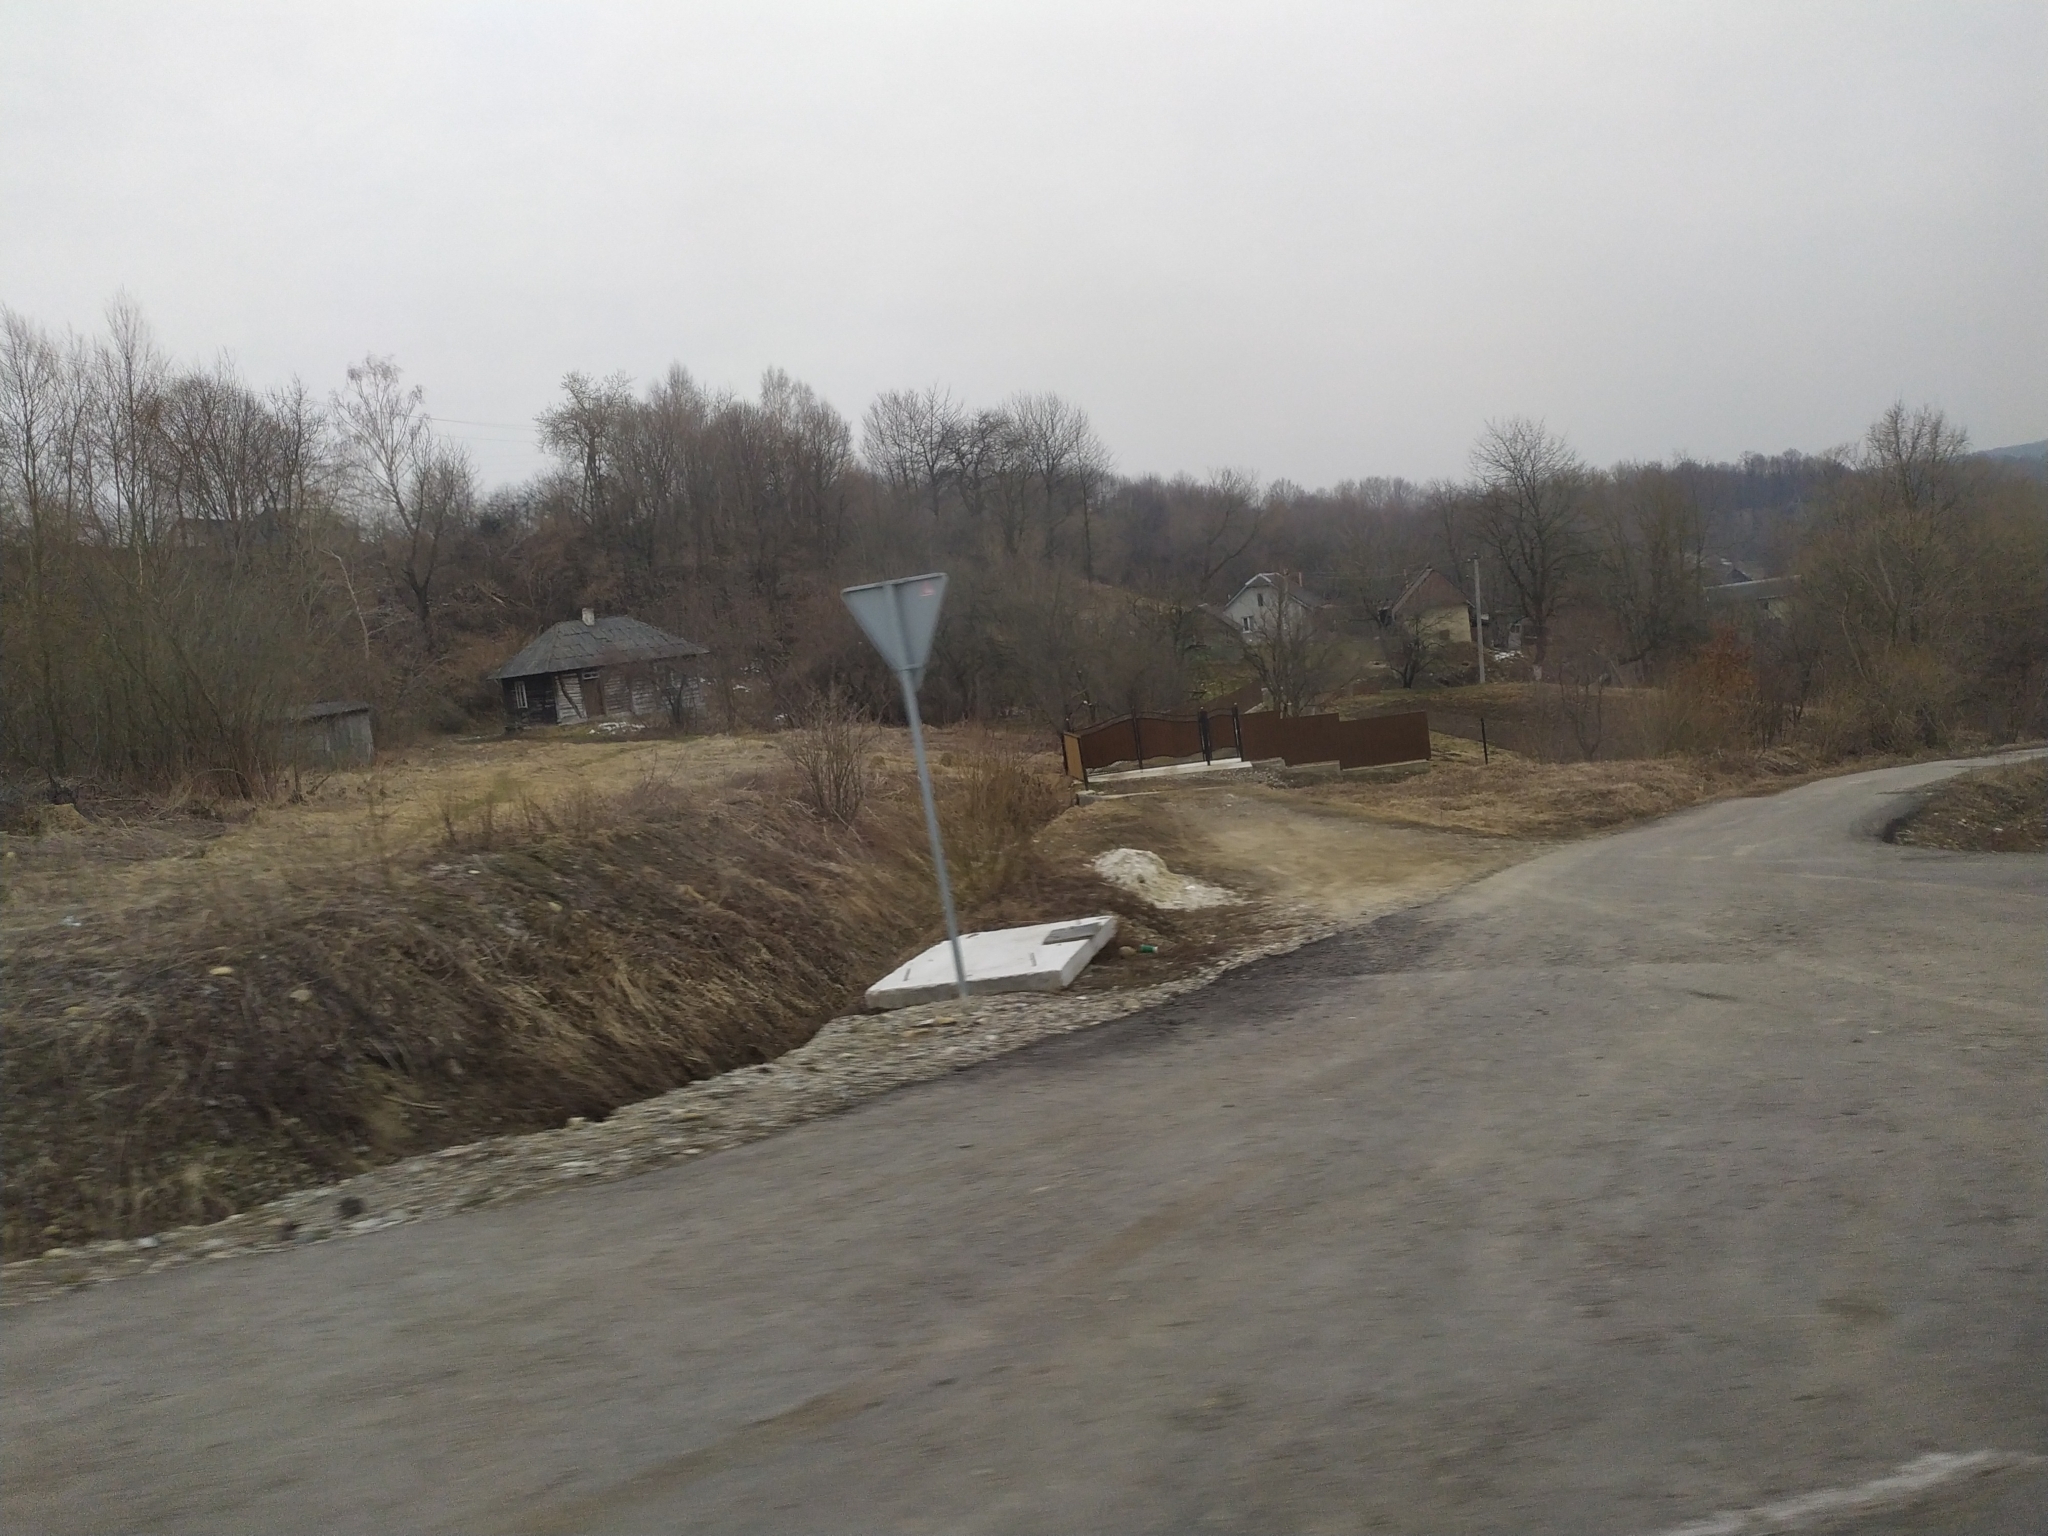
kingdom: Animalia
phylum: Chordata
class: Mammalia
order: Soricomorpha
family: Talpidae
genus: Talpa
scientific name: Talpa europaea
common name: European mole
